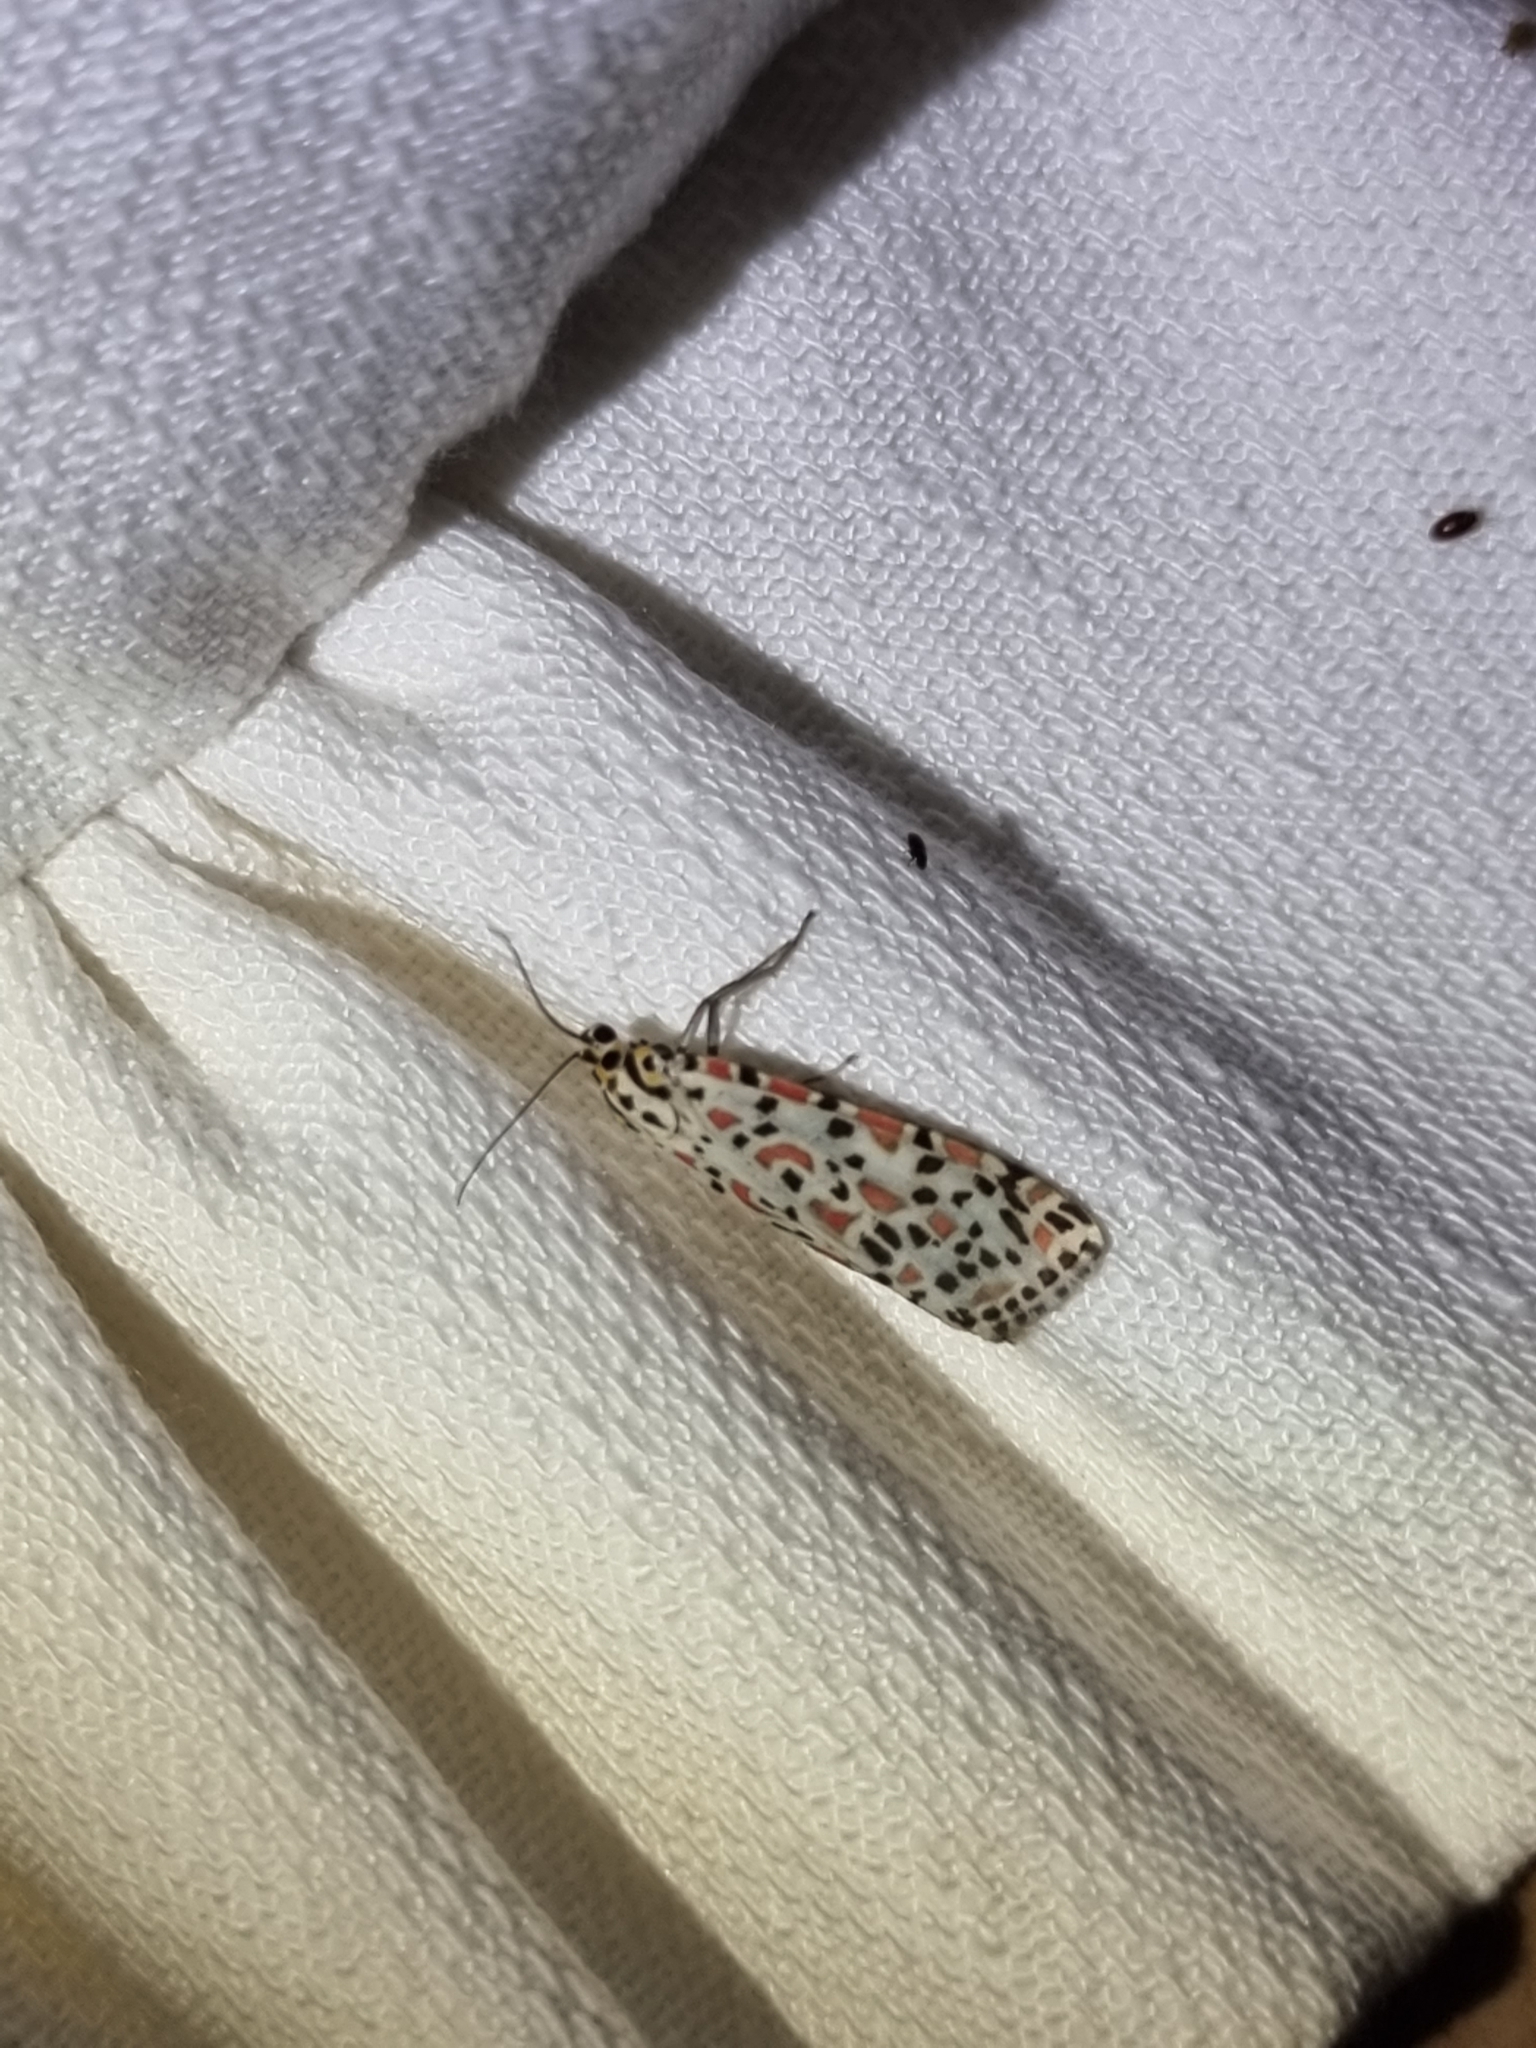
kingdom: Animalia
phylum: Arthropoda
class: Insecta
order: Lepidoptera
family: Erebidae
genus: Utetheisa
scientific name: Utetheisa lotrix
